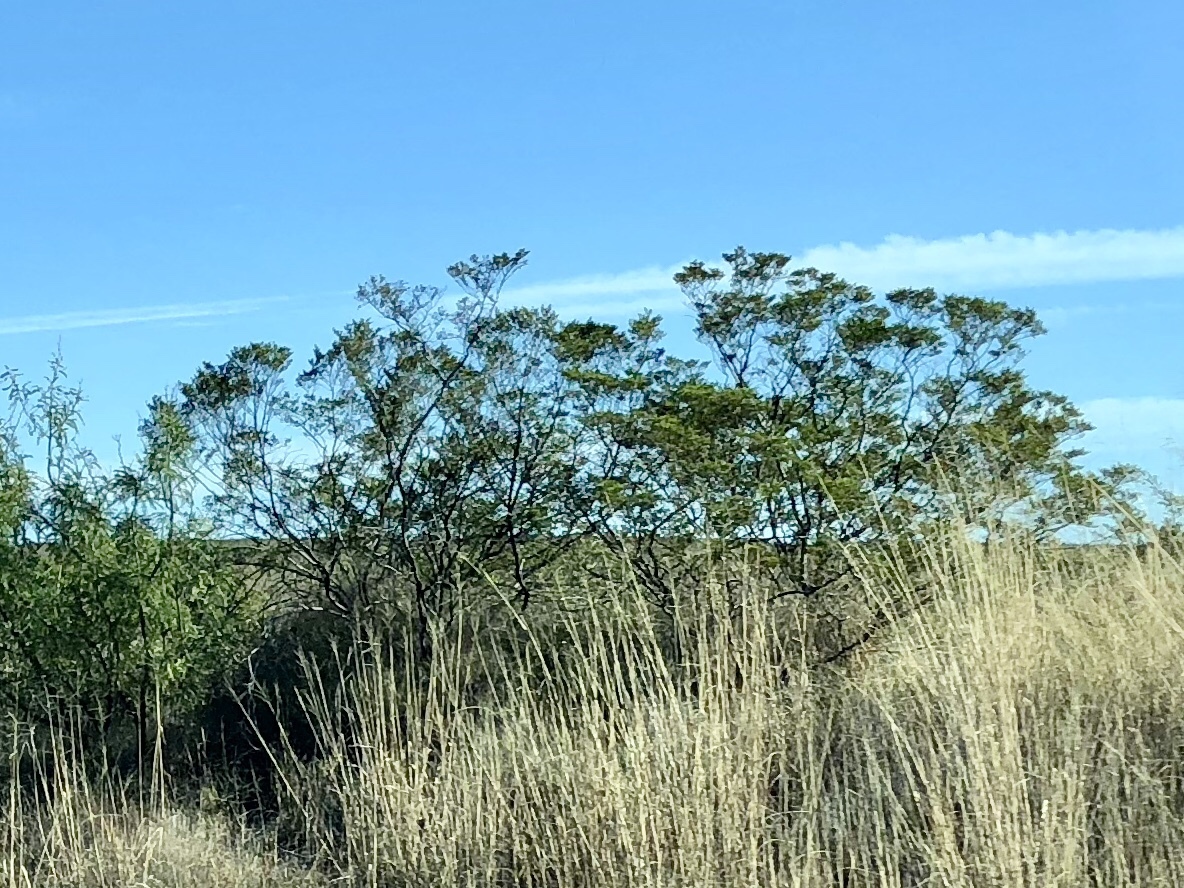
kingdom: Plantae
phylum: Tracheophyta
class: Magnoliopsida
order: Zygophyllales
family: Zygophyllaceae
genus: Larrea
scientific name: Larrea tridentata
